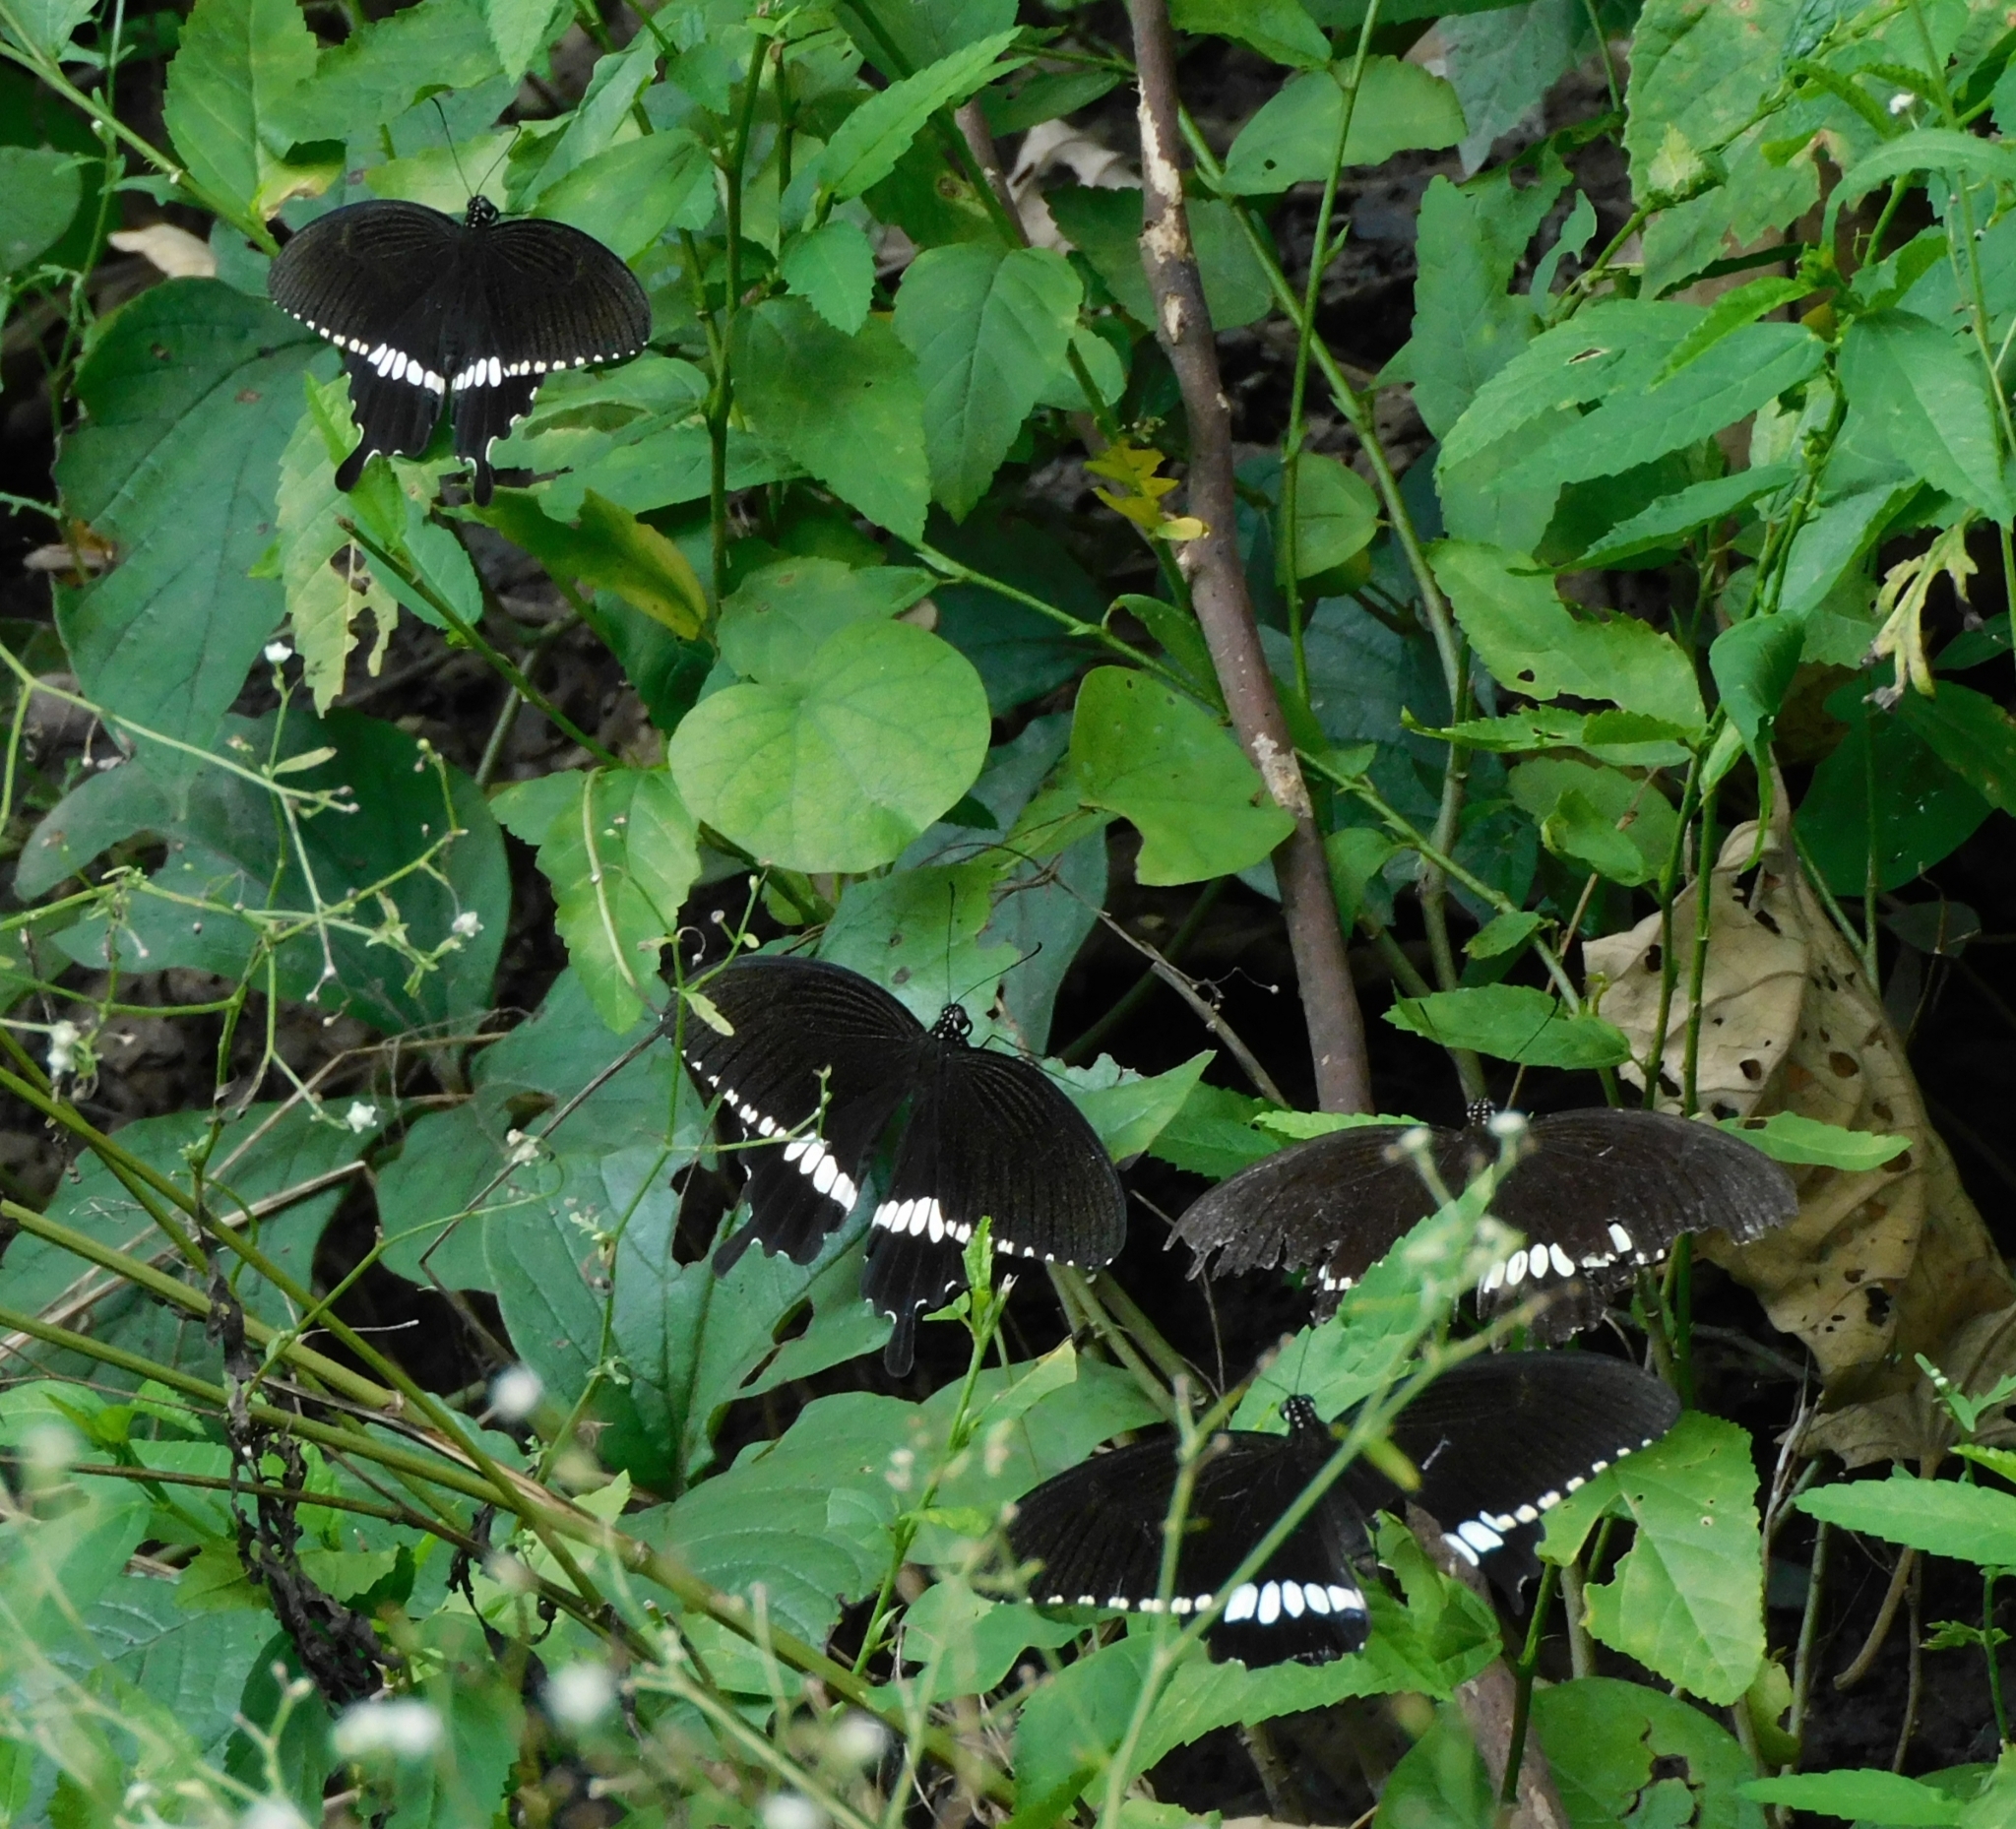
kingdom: Animalia
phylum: Arthropoda
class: Insecta
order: Lepidoptera
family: Papilionidae
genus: Papilio
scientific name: Papilio polytes
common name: Common mormon
